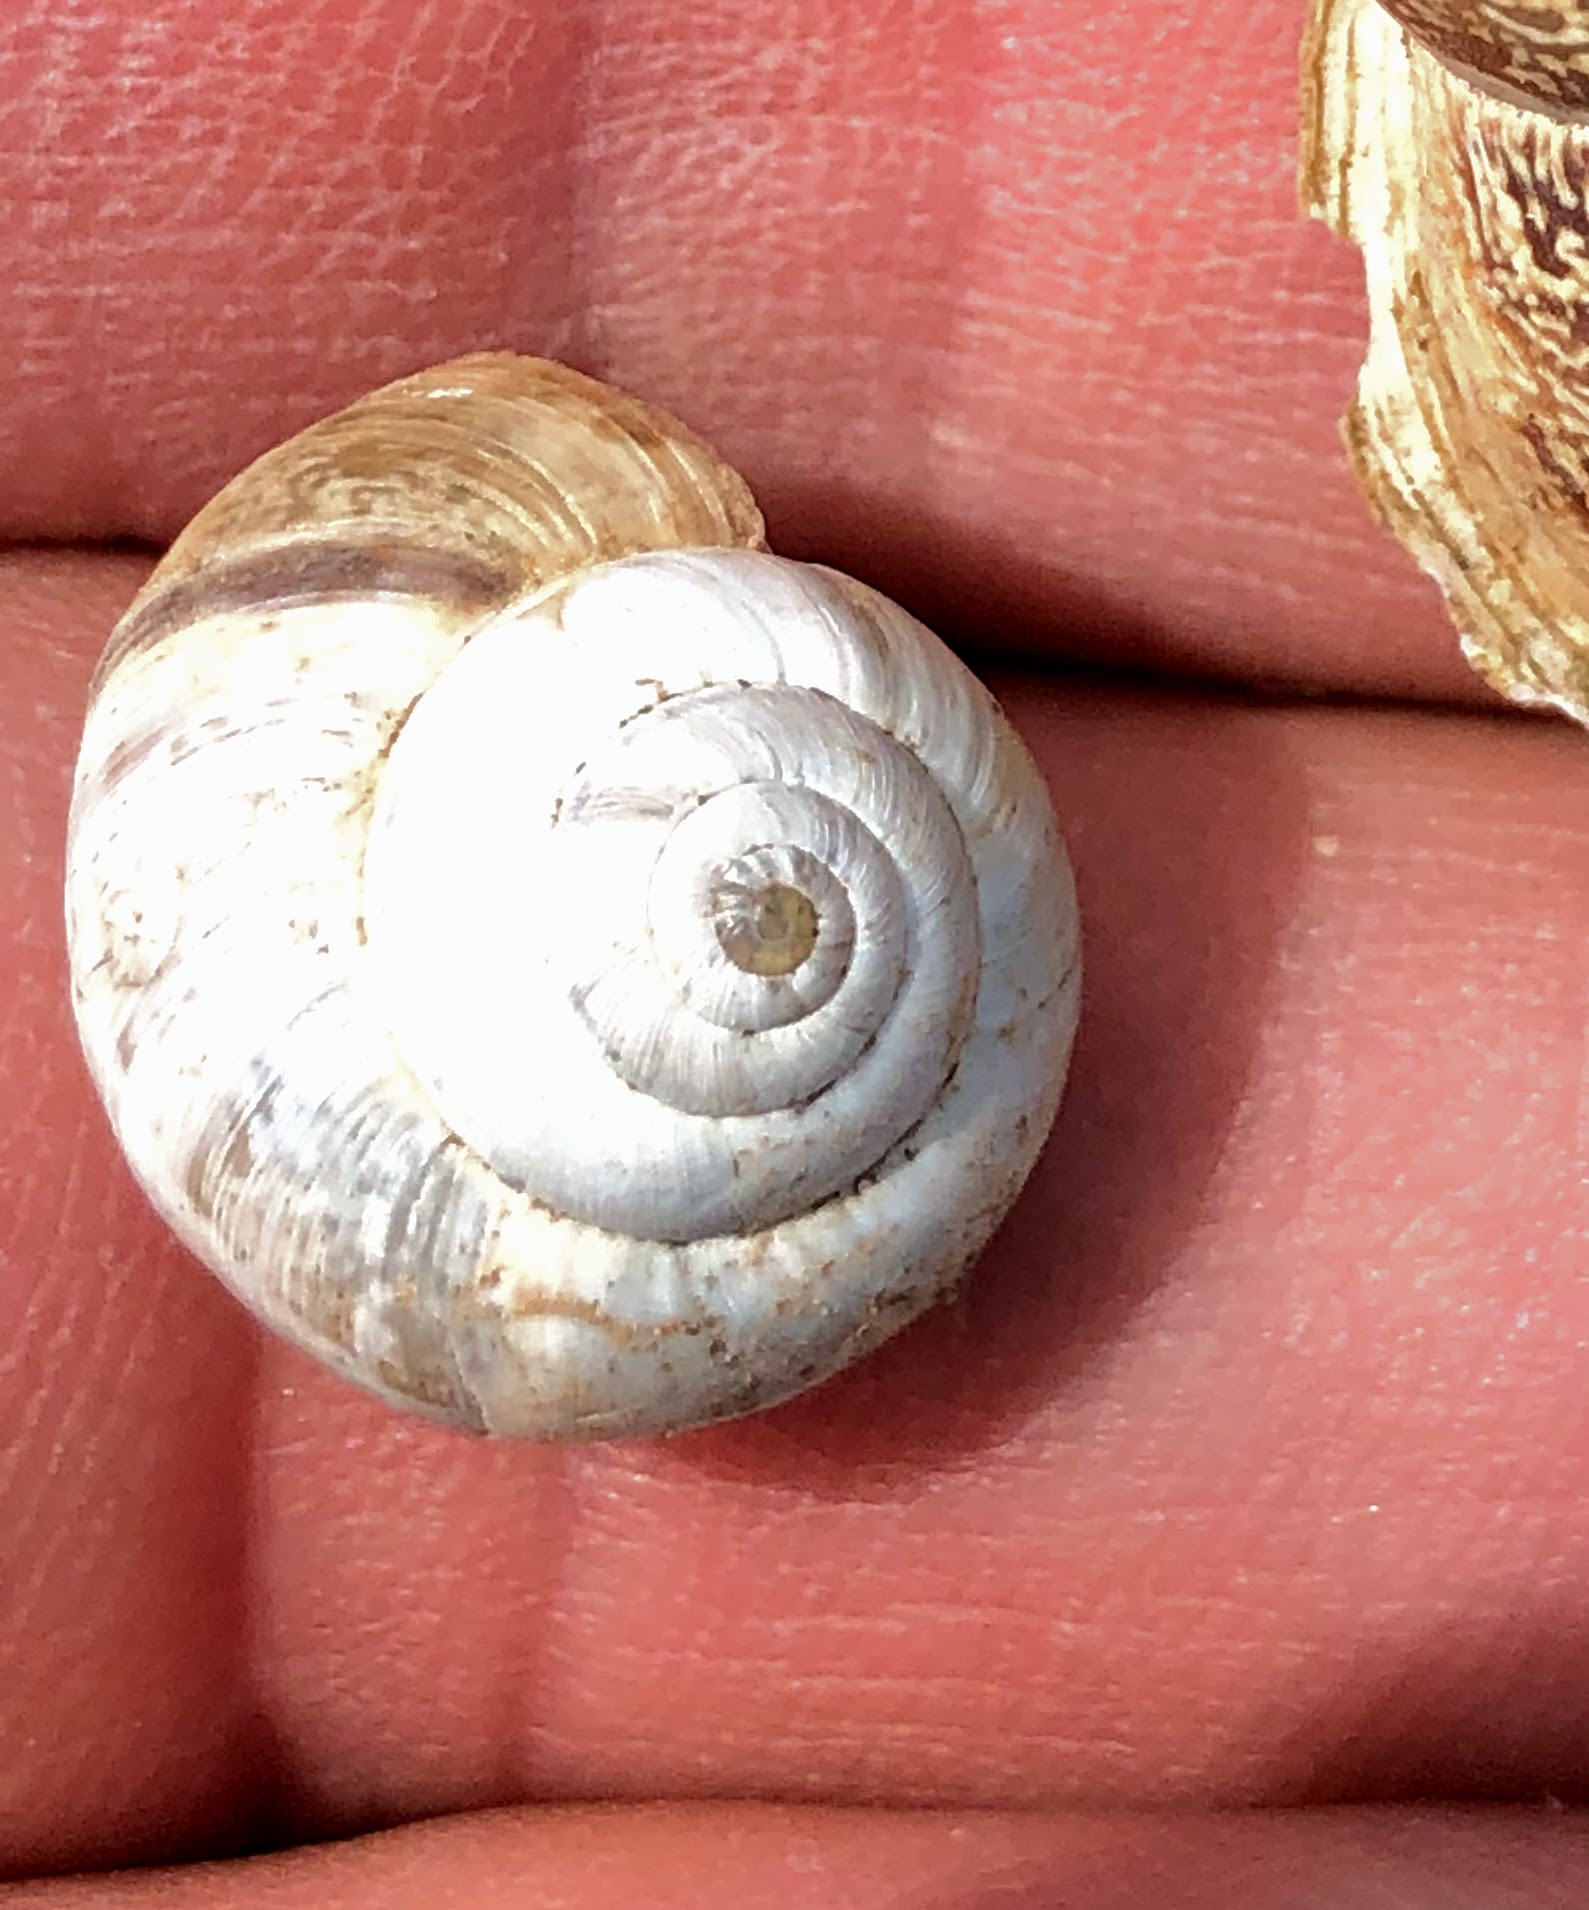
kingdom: Animalia
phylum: Mollusca
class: Gastropoda
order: Stylommatophora
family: Geomitridae
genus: Cernuella
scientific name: Cernuella virgata
